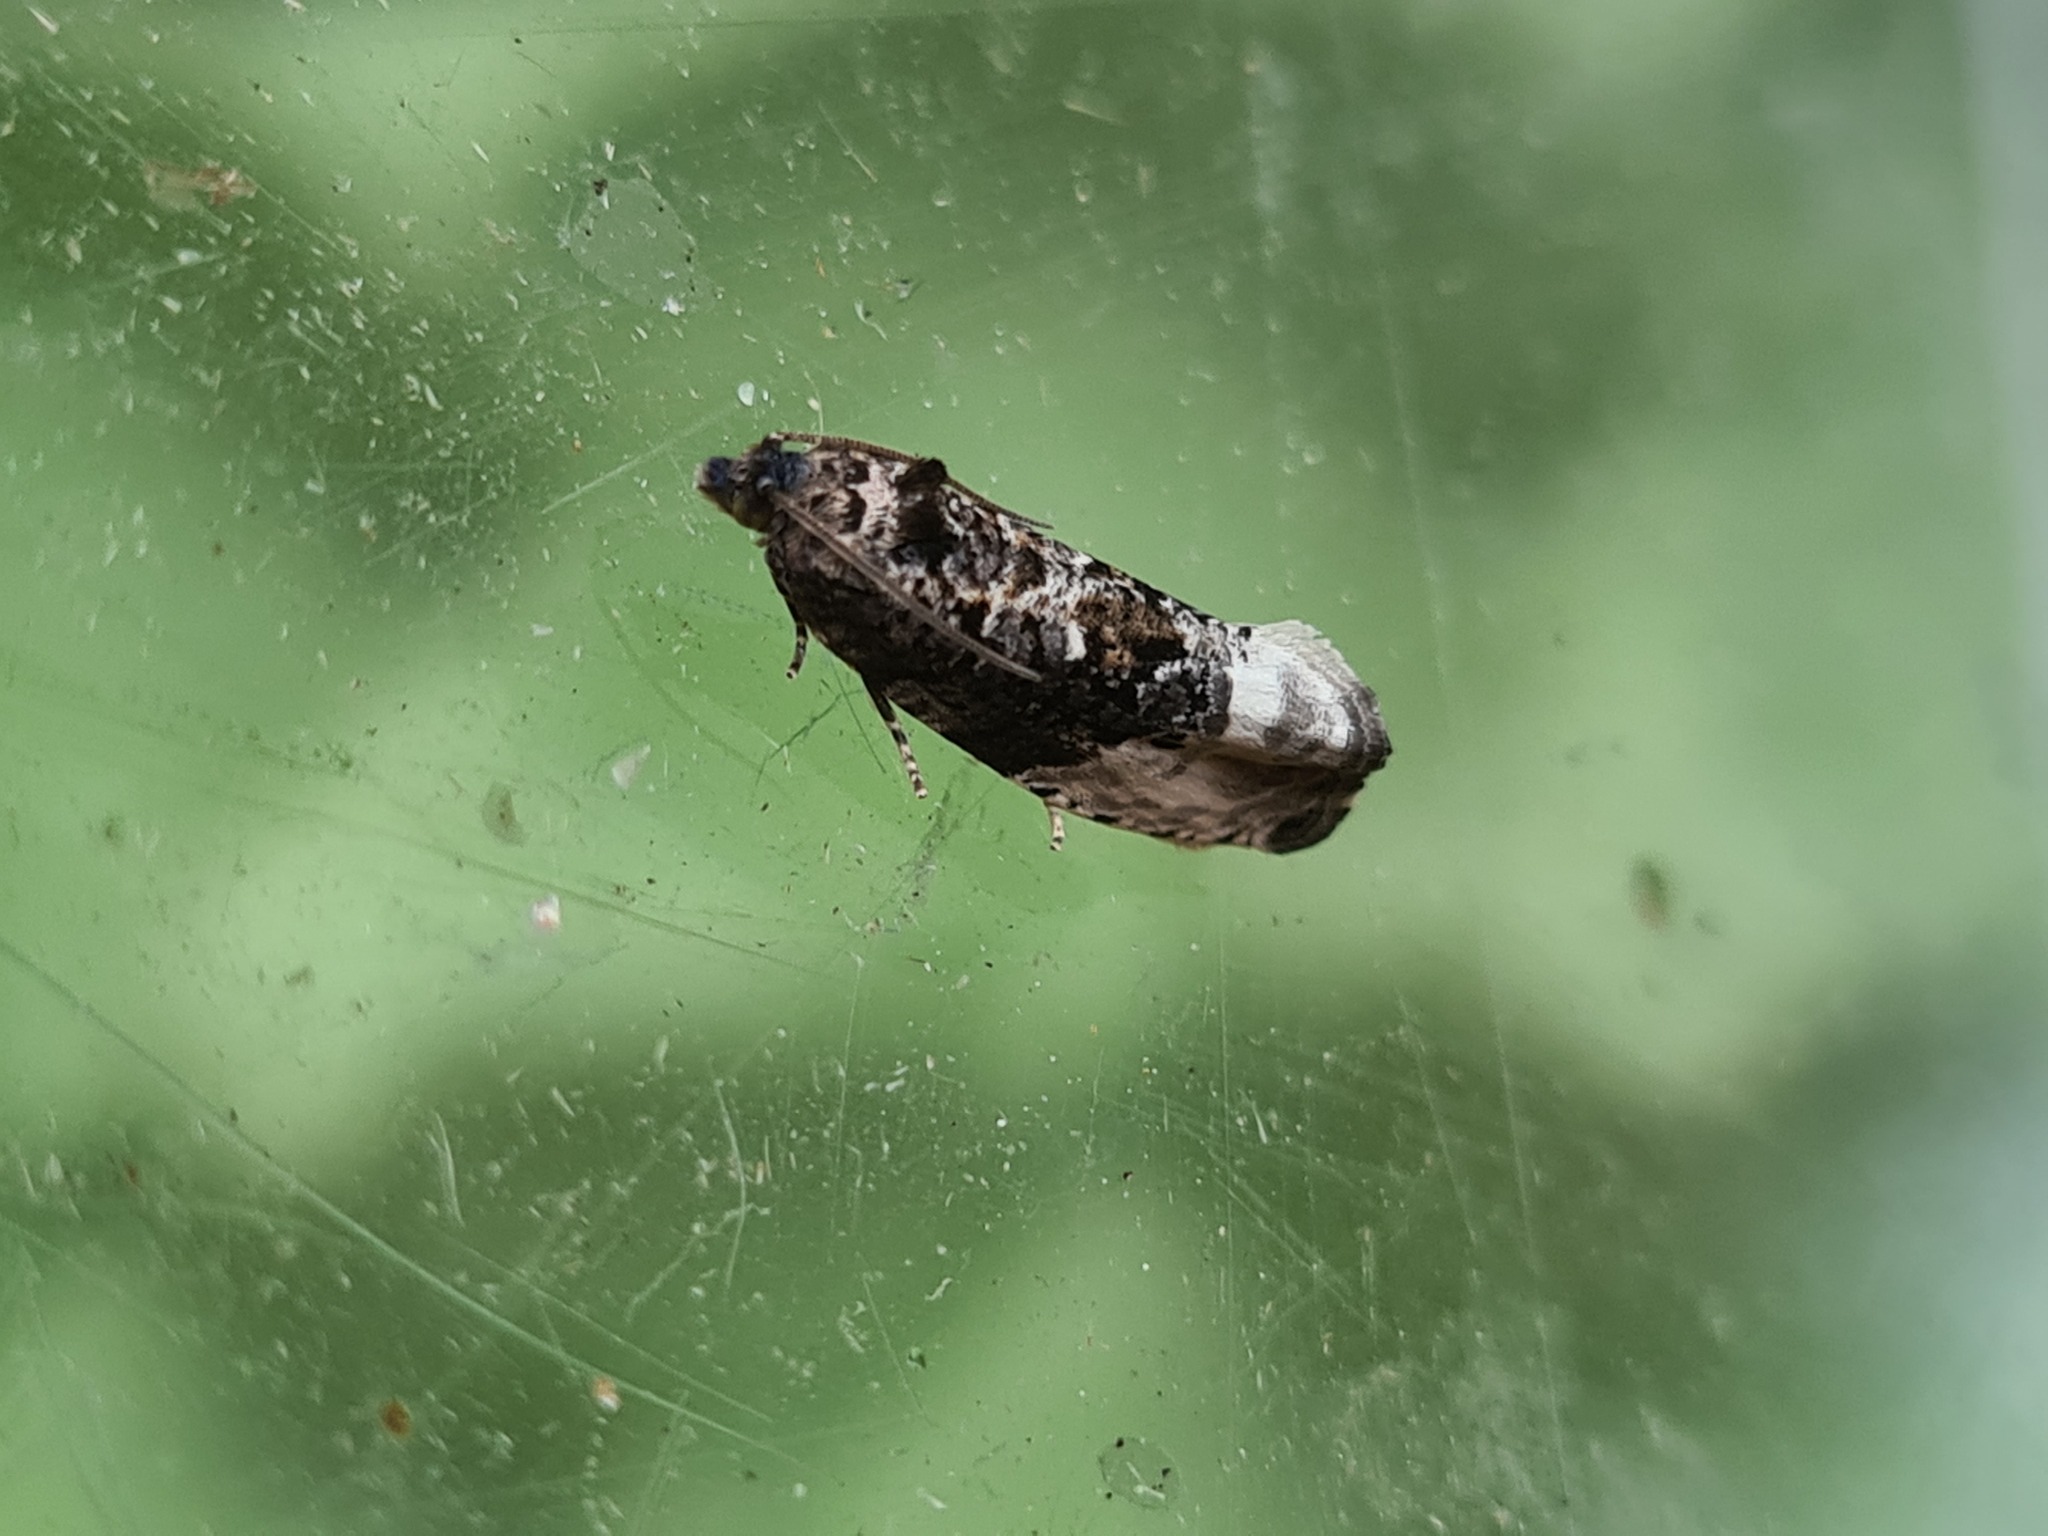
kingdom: Animalia
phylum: Arthropoda
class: Insecta
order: Lepidoptera
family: Tortricidae
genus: Hedya
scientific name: Hedya nubiferana
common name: Marbled orchard tortrix
